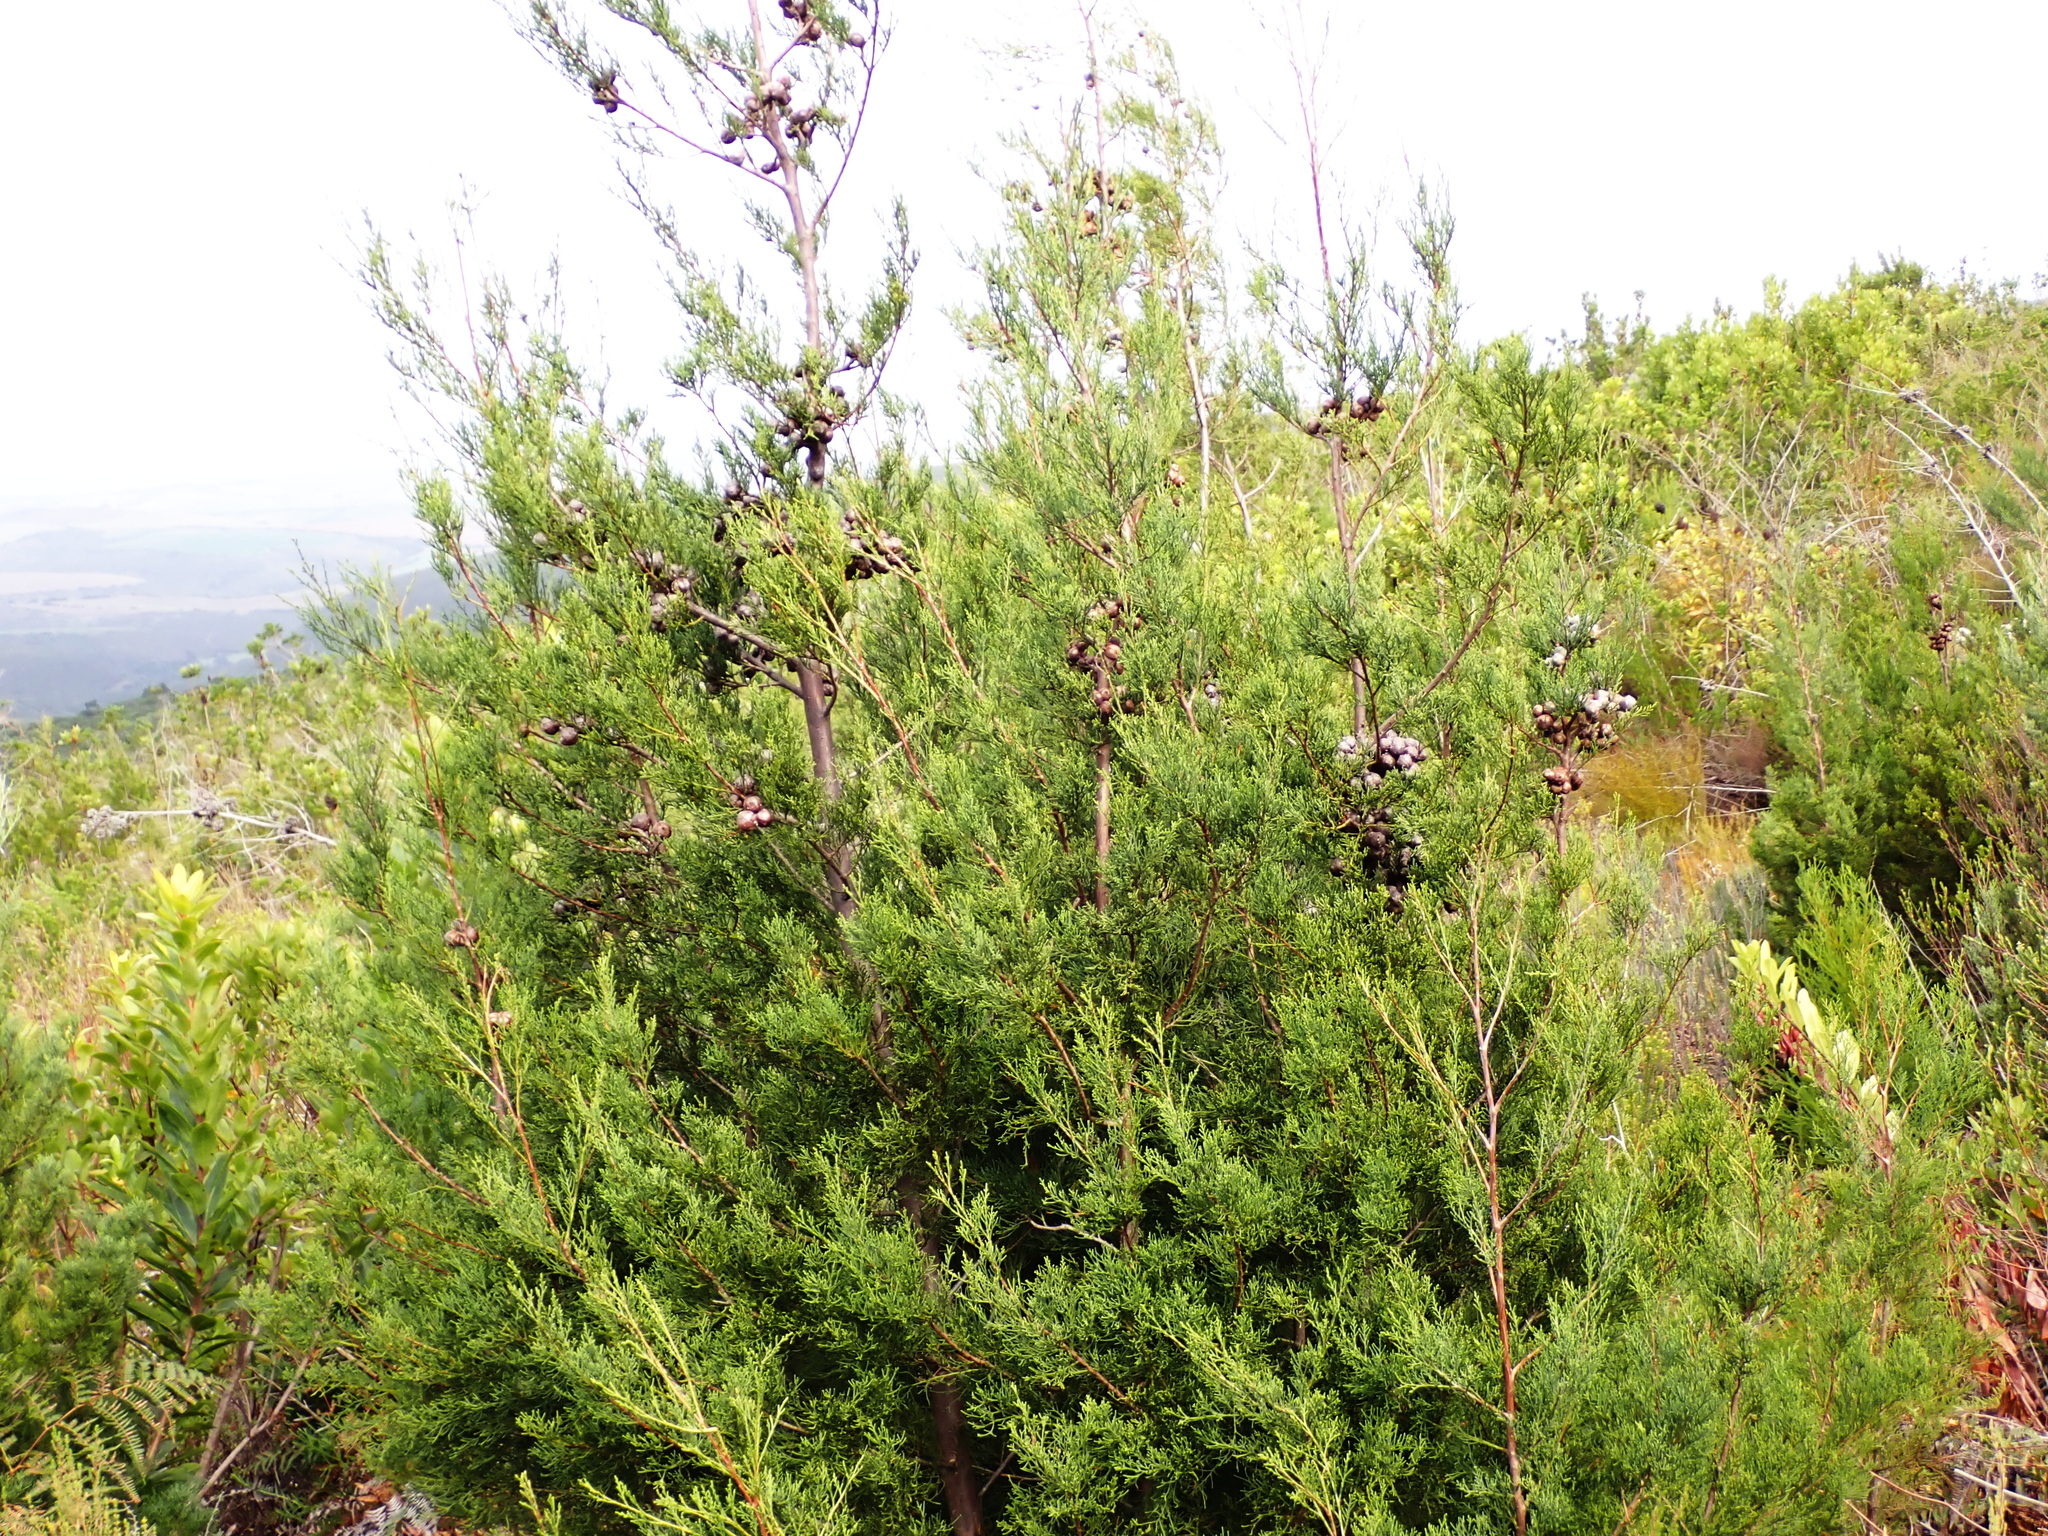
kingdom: Plantae
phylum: Tracheophyta
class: Pinopsida
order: Pinales
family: Cupressaceae
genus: Widdringtonia
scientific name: Widdringtonia nodiflora
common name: Cape cypress
